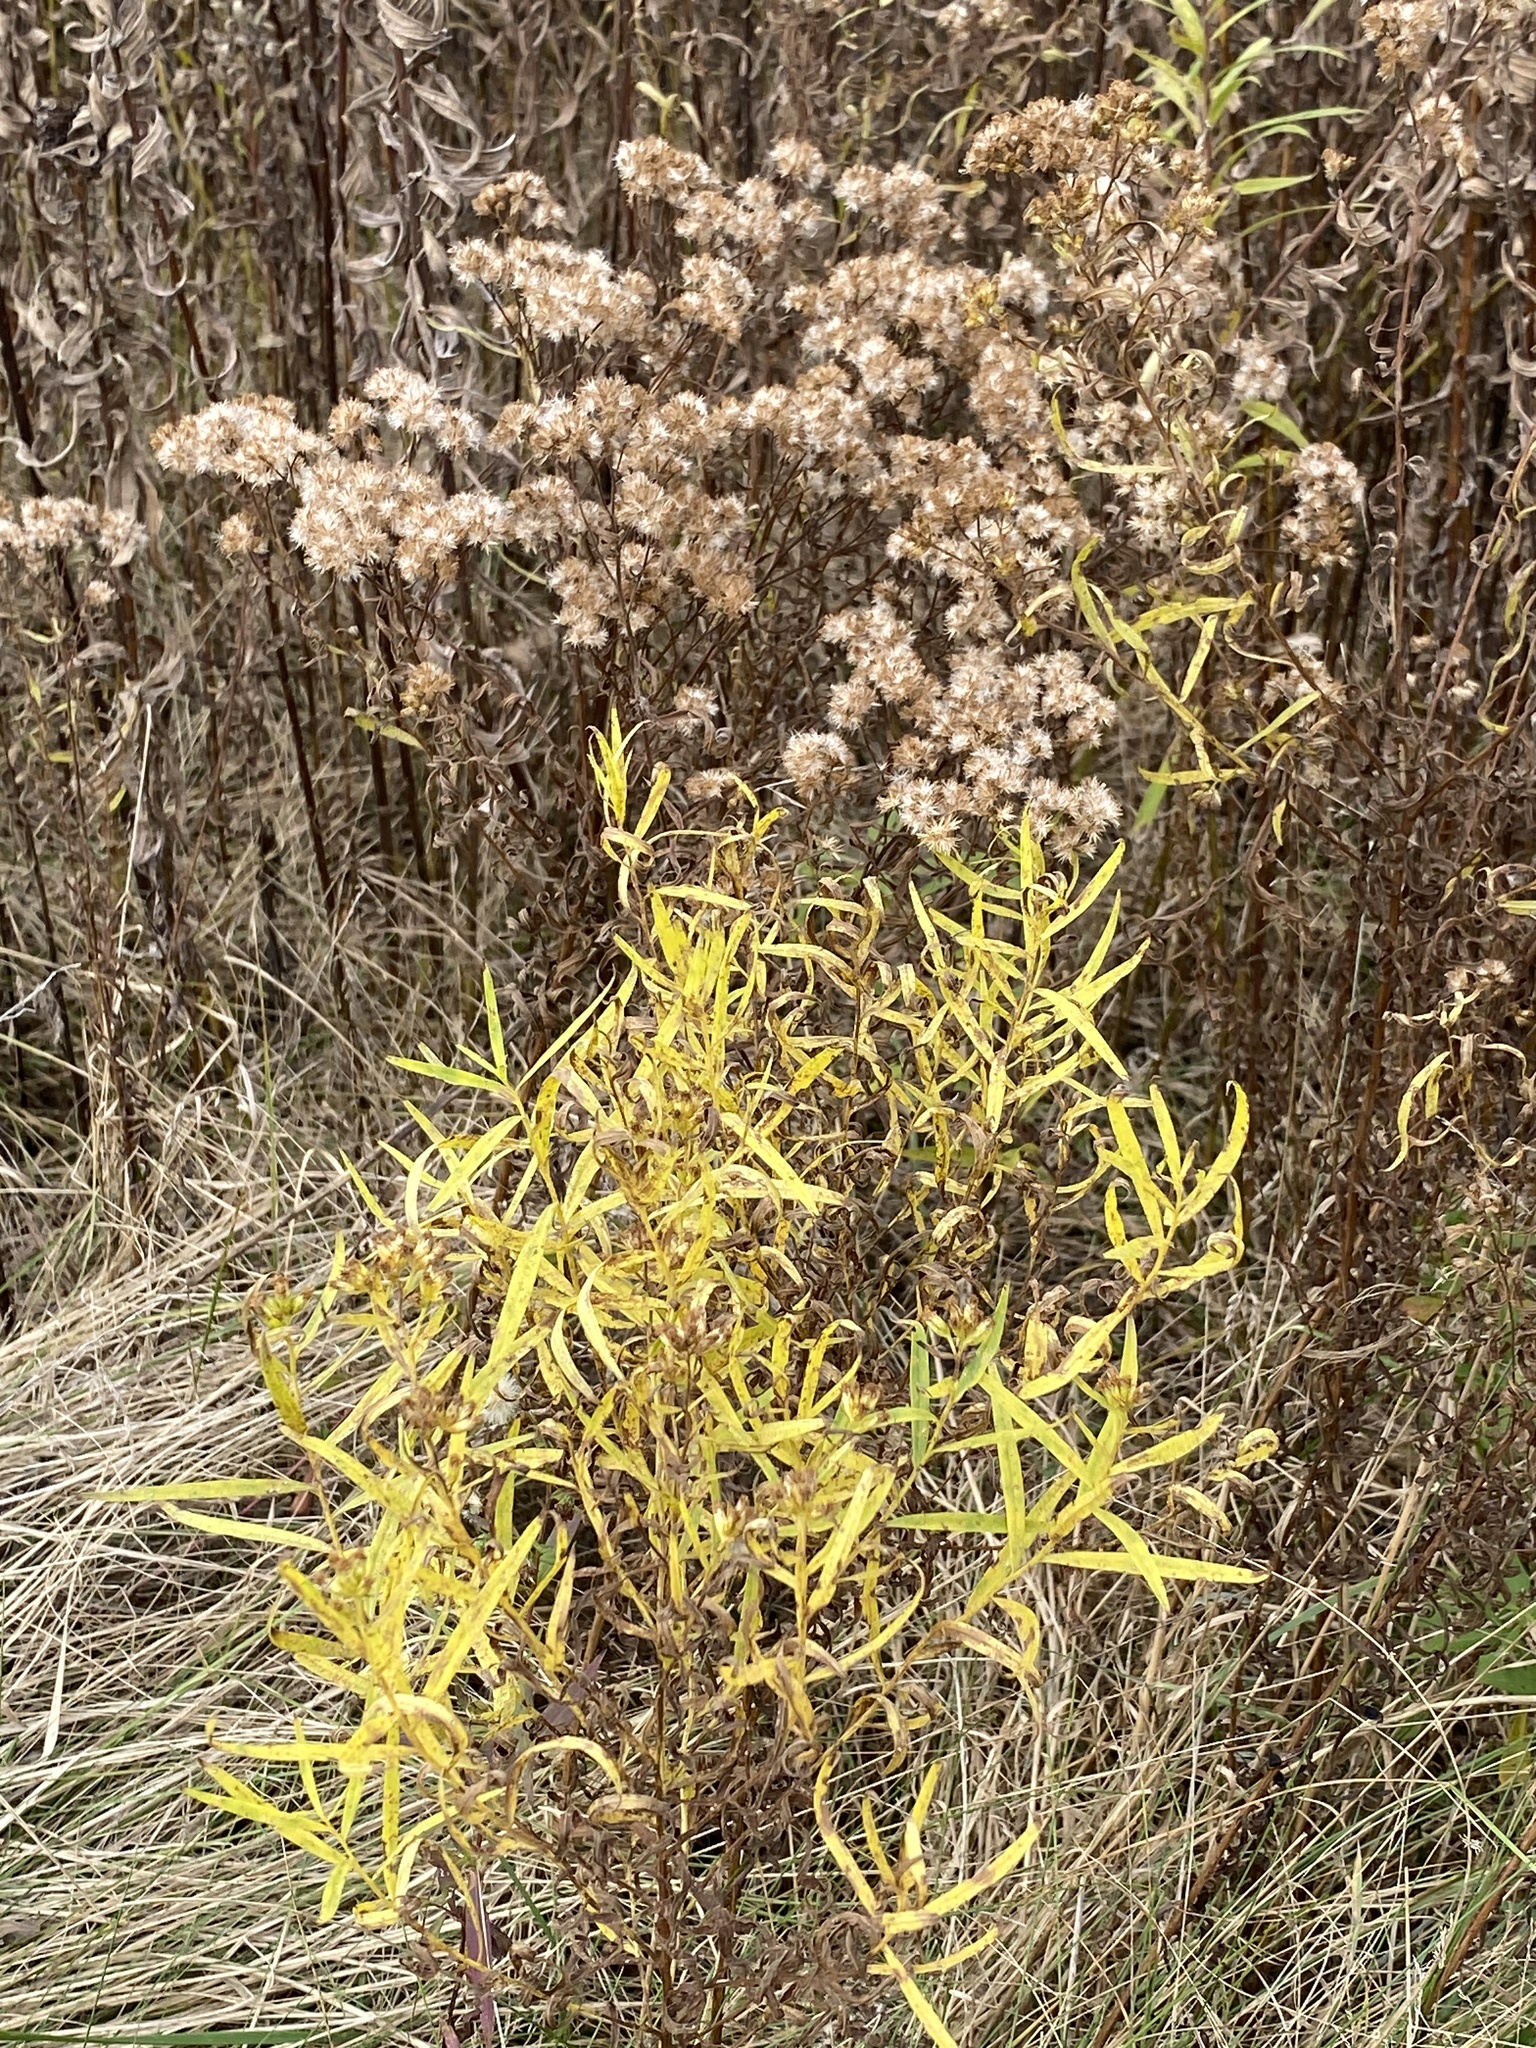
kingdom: Plantae
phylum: Tracheophyta
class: Magnoliopsida
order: Asterales
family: Asteraceae
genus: Euthamia
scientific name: Euthamia graminifolia
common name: Common goldentop
